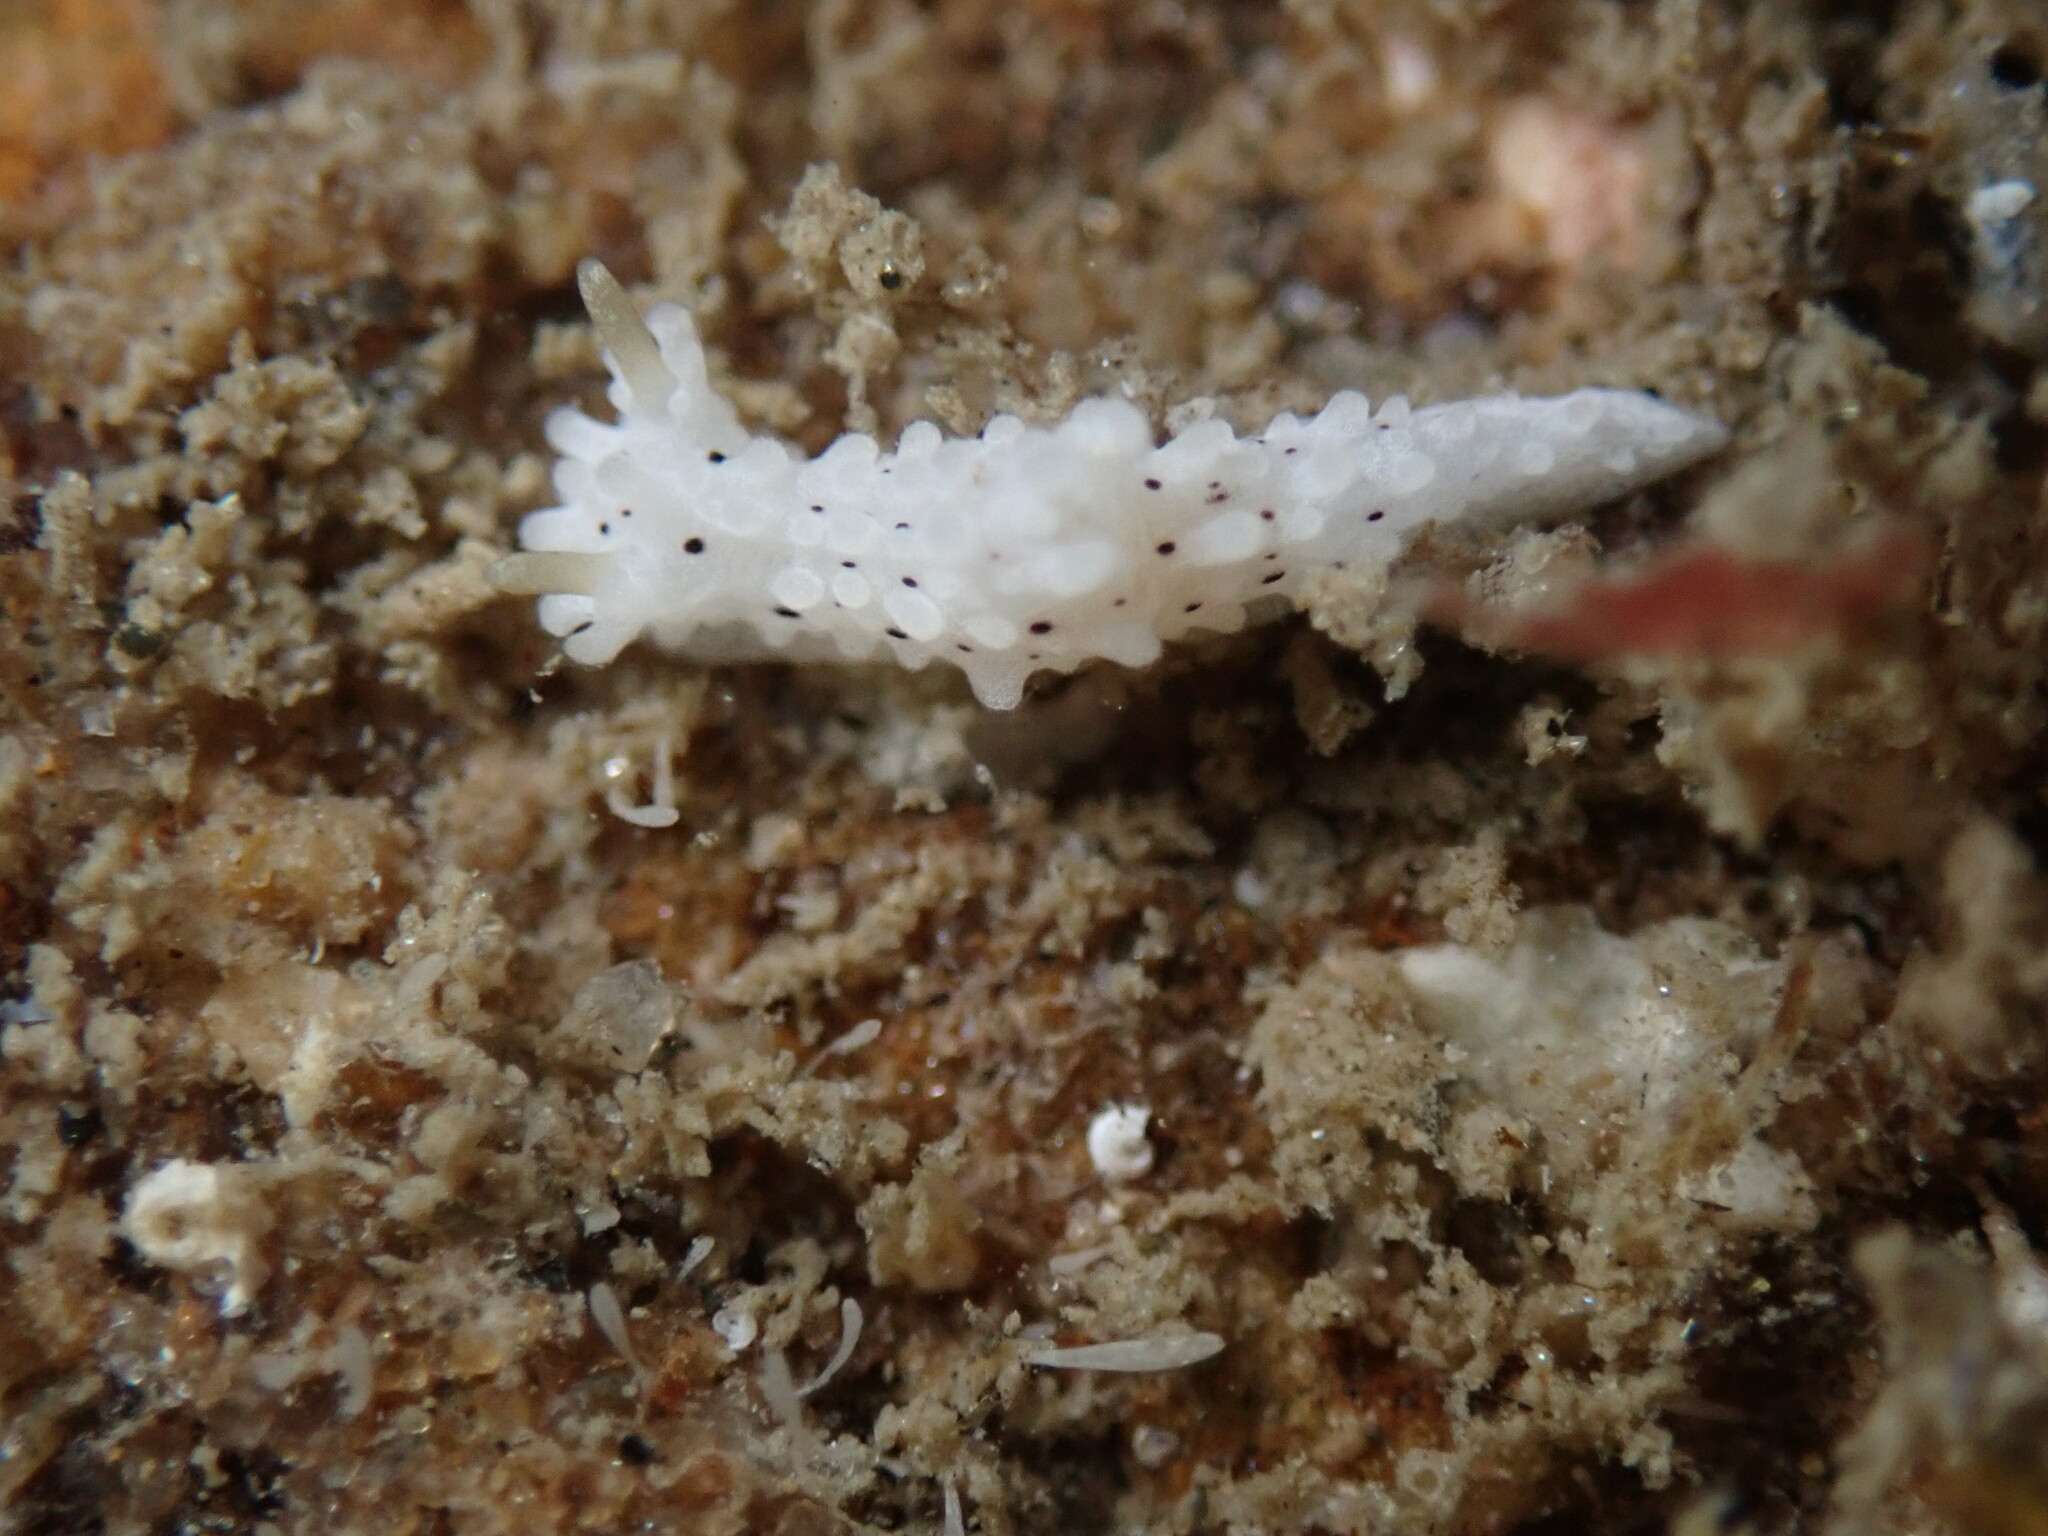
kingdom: Animalia
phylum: Mollusca
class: Gastropoda
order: Nudibranchia
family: Aegiridae
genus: Aegires
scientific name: Aegires albopunctatus
